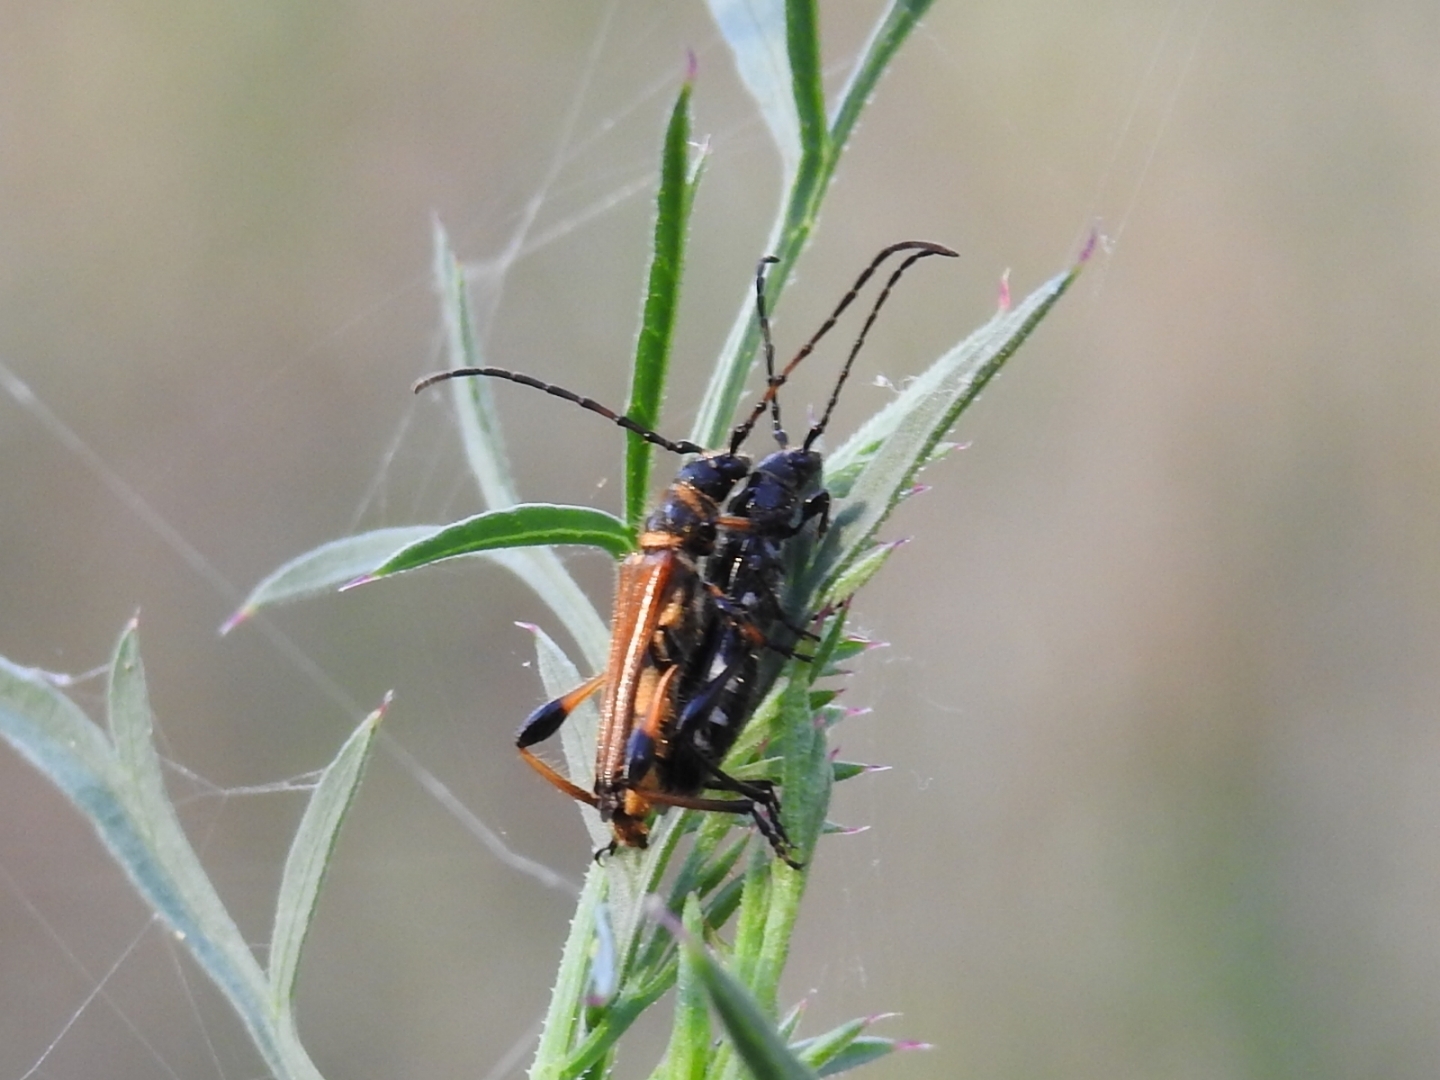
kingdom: Animalia
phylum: Arthropoda
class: Insecta
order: Coleoptera
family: Cerambycidae
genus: Stenopterus
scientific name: Stenopterus ater
